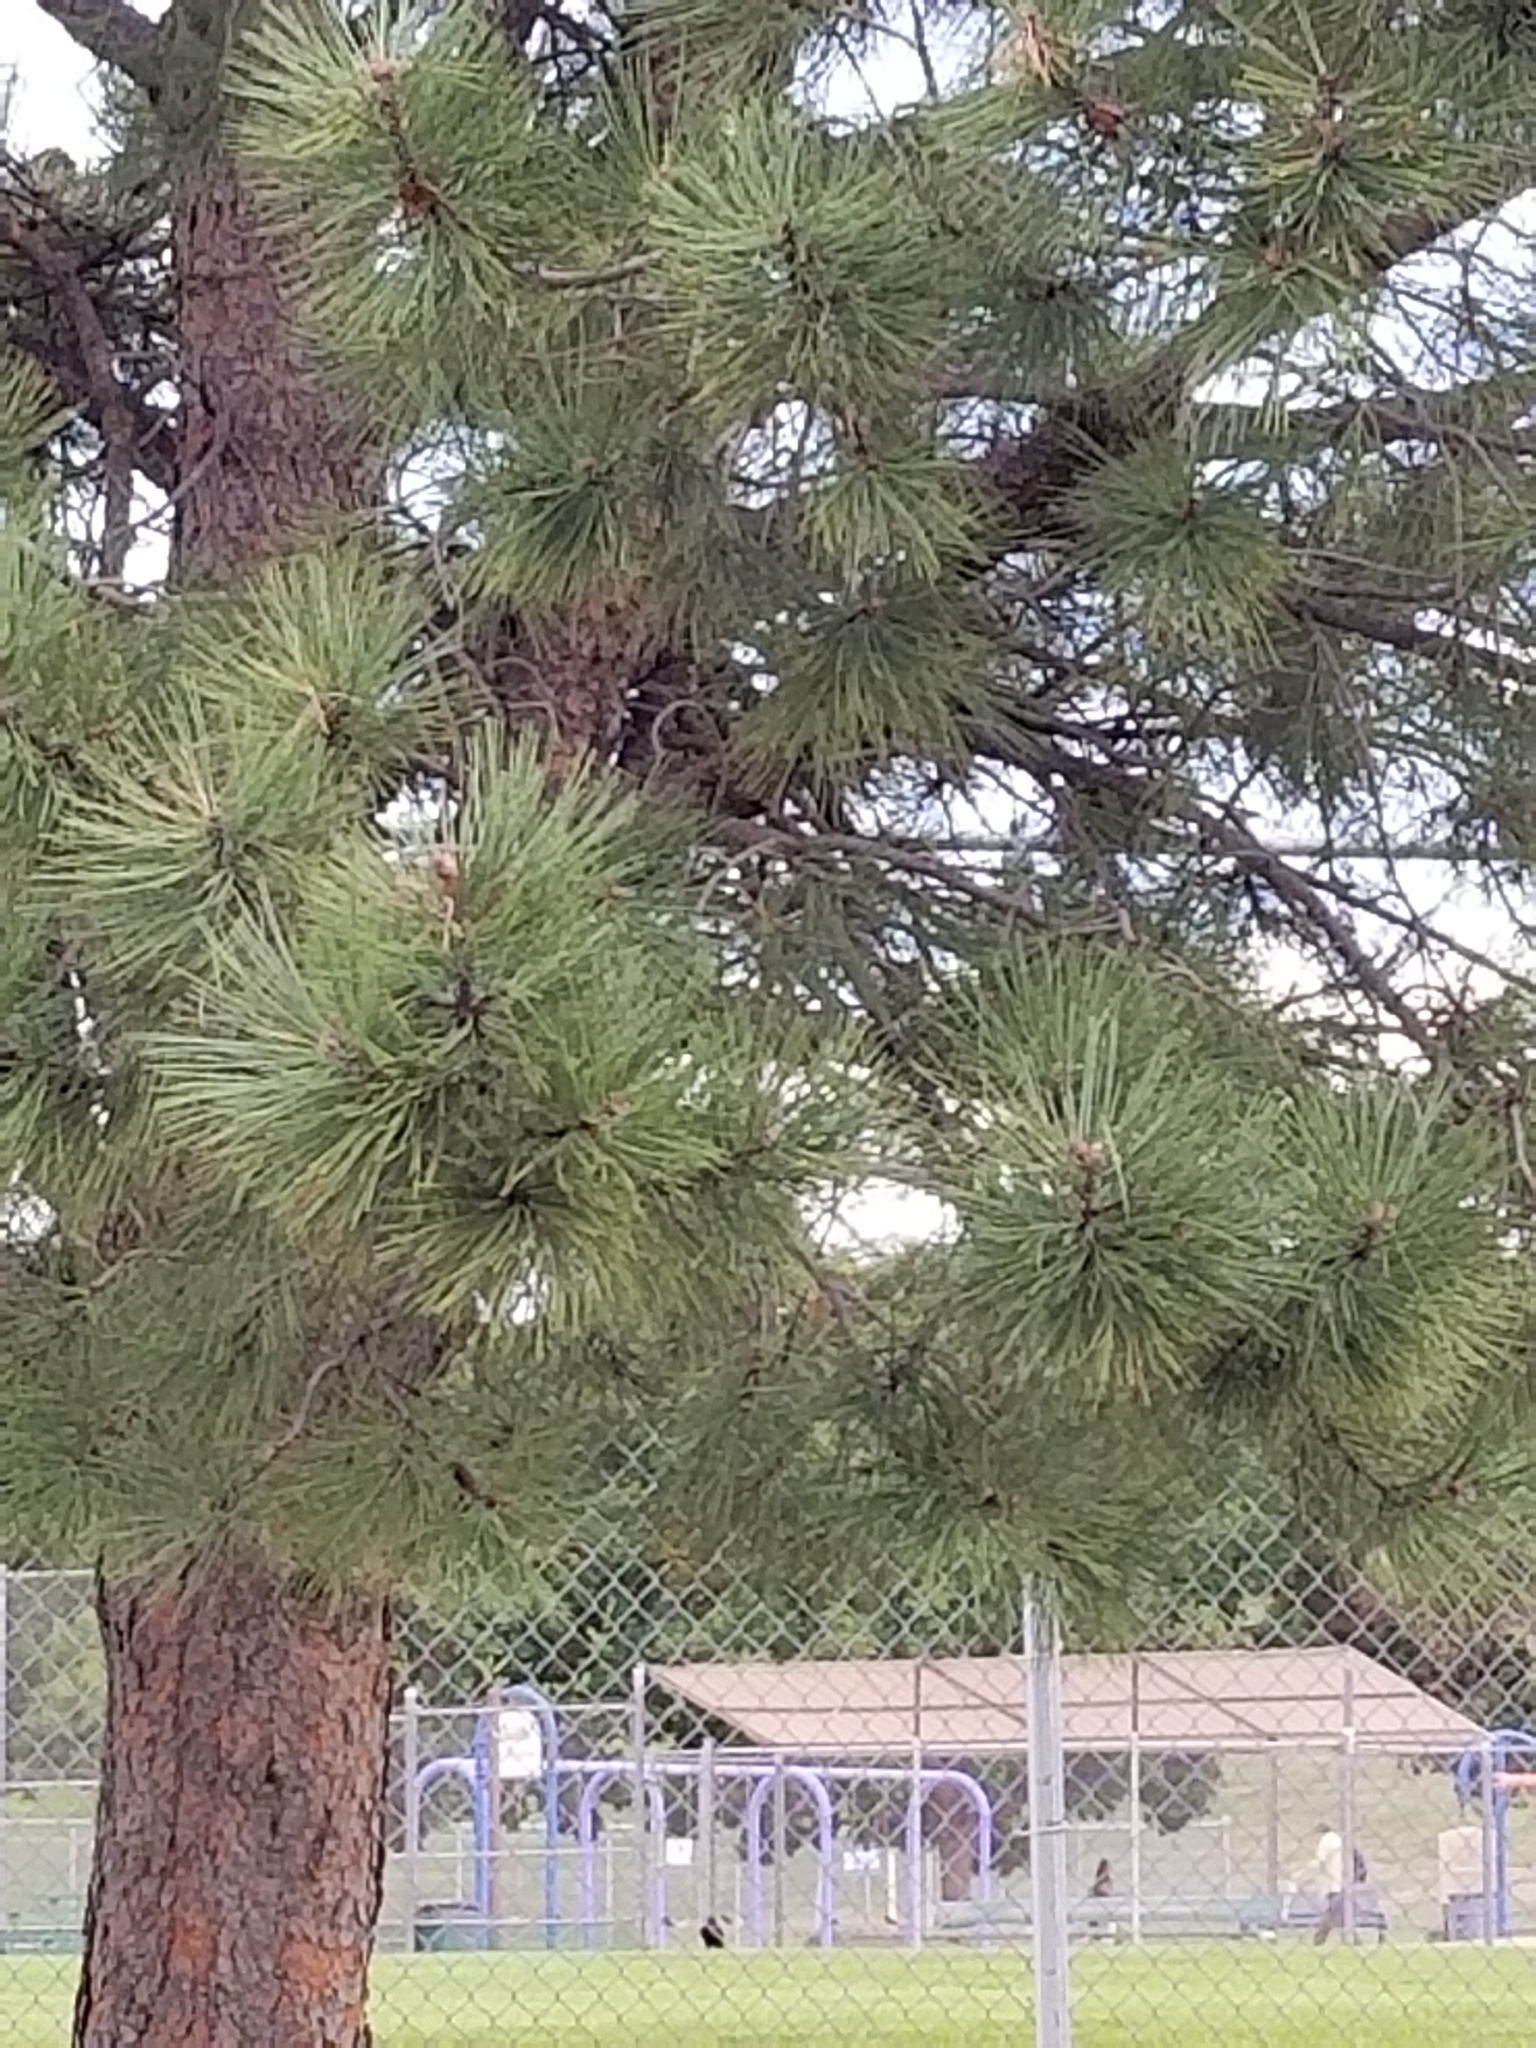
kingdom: Plantae
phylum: Tracheophyta
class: Pinopsida
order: Pinales
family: Pinaceae
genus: Pinus
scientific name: Pinus ponderosa
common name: Western yellow-pine
